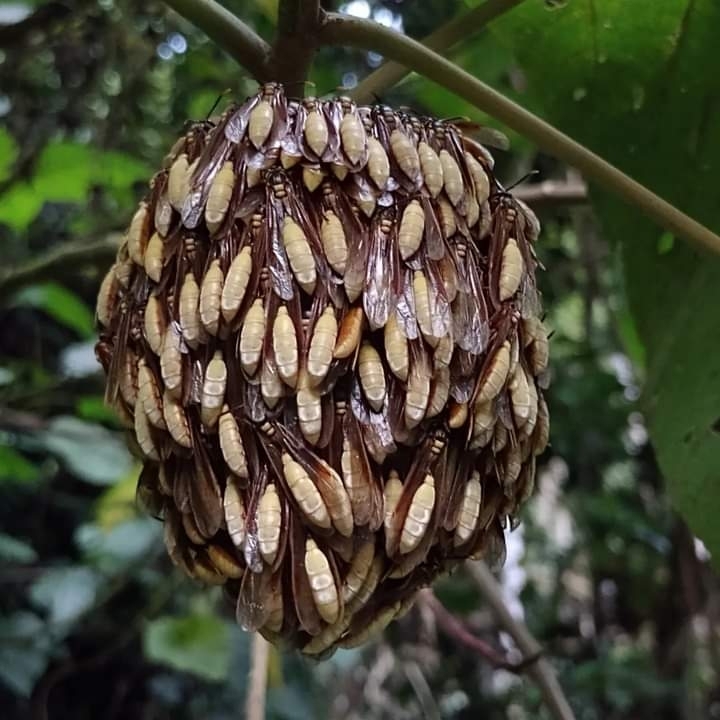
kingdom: Animalia
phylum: Arthropoda
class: Insecta
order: Hymenoptera
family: Vespidae
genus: Apoica
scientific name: Apoica pallens
